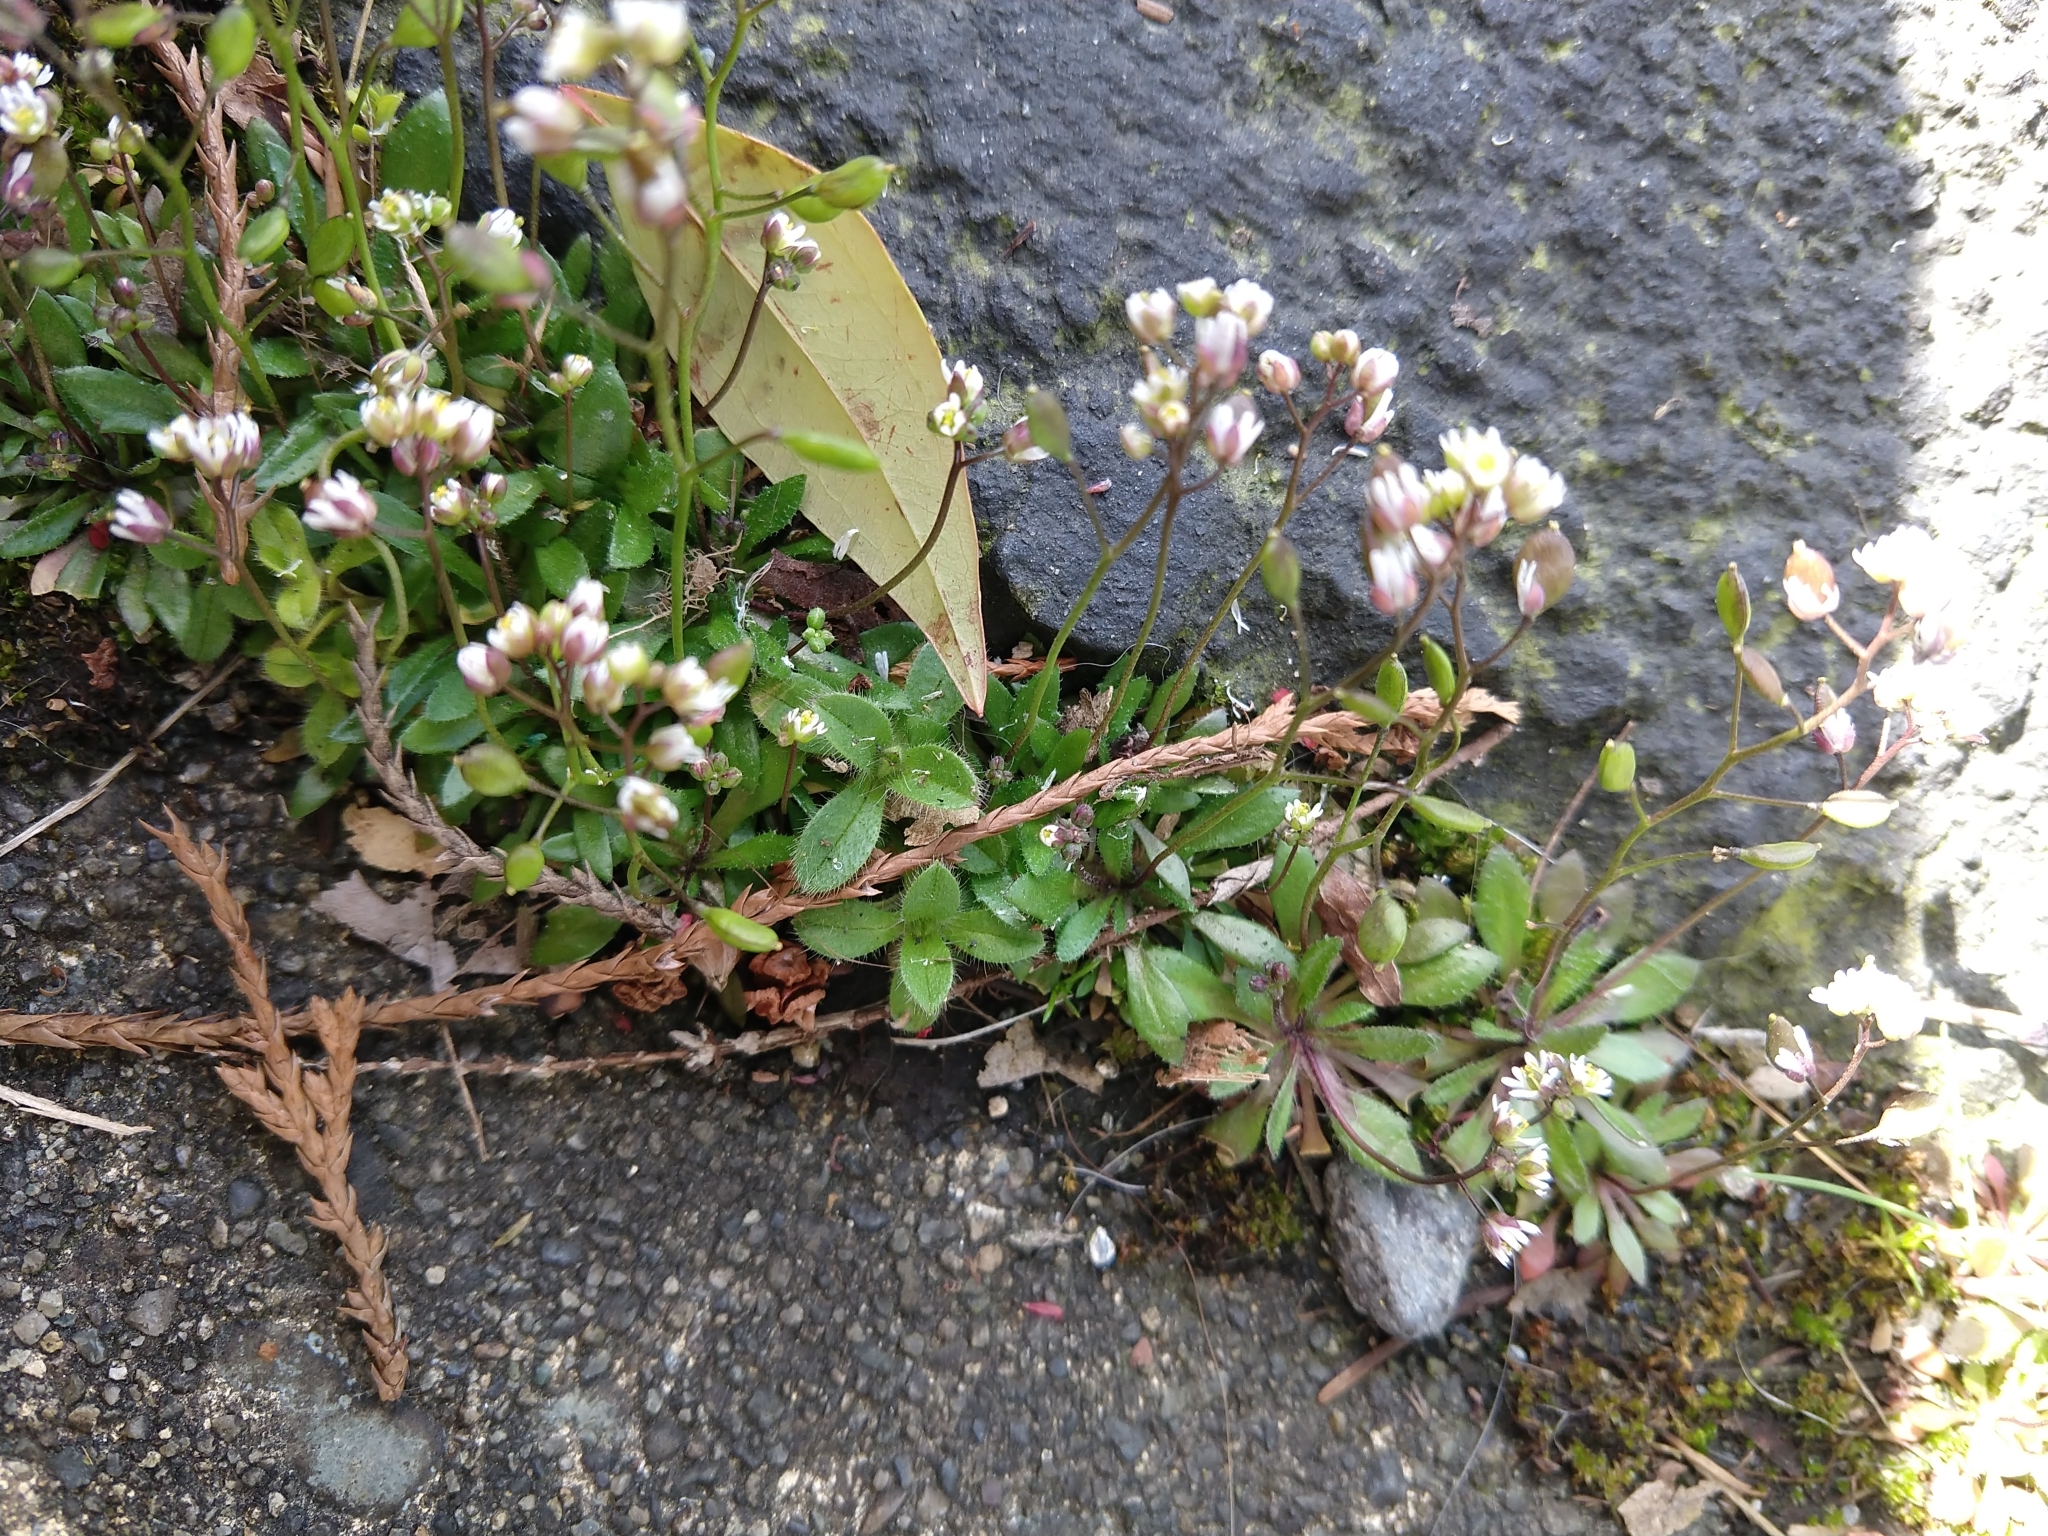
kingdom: Plantae
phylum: Tracheophyta
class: Magnoliopsida
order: Brassicales
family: Brassicaceae
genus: Draba
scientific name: Draba verna
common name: Spring draba
